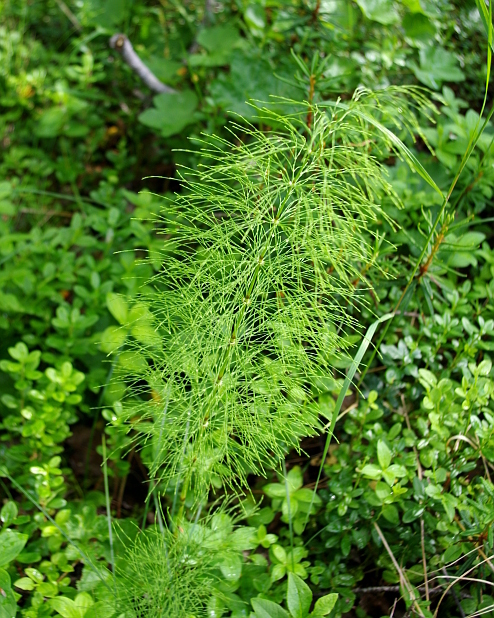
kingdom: Plantae
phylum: Tracheophyta
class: Polypodiopsida
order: Equisetales
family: Equisetaceae
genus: Equisetum
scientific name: Equisetum sylvaticum
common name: Wood horsetail
